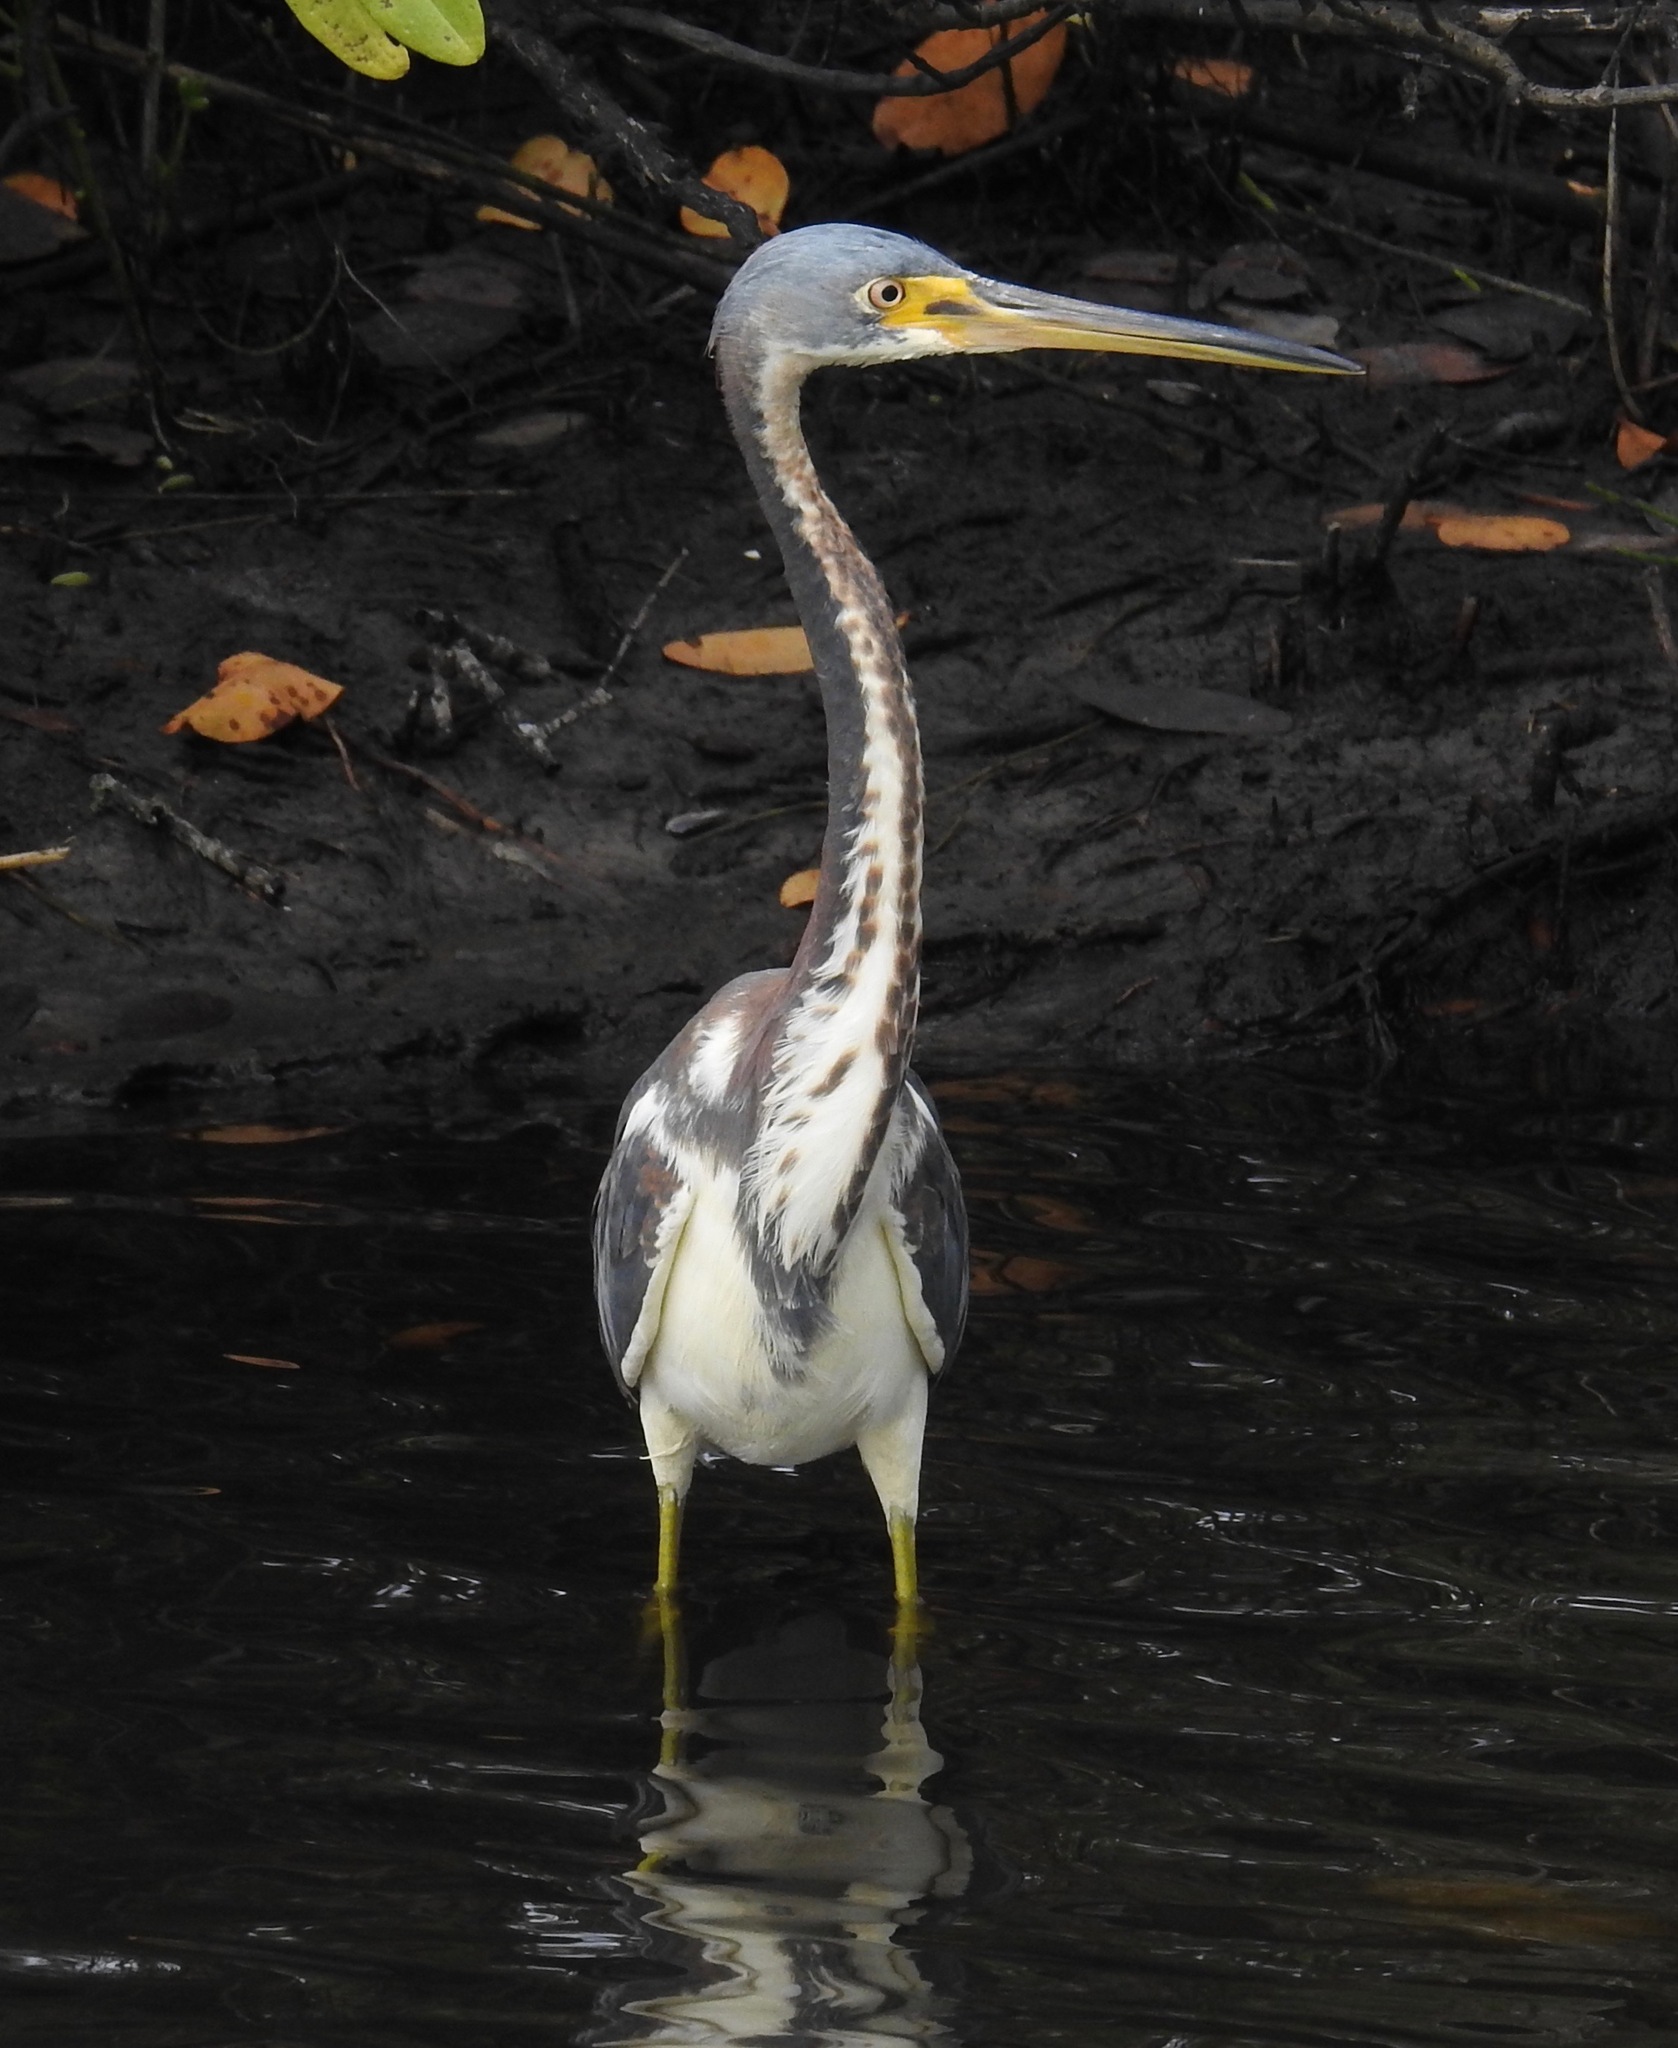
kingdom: Animalia
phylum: Chordata
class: Aves
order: Pelecaniformes
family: Ardeidae
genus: Egretta
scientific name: Egretta tricolor
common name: Tricolored heron
